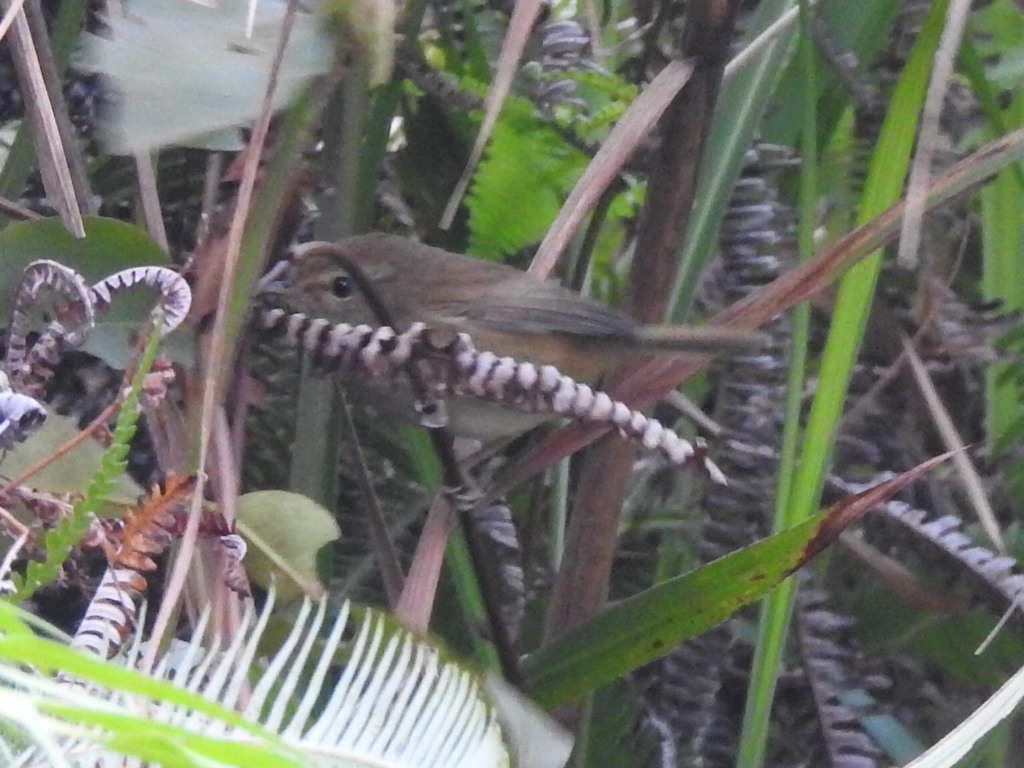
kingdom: Animalia
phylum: Chordata
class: Aves
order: Passeriformes
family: Cettiidae
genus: Horornis
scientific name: Horornis fortipes
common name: Brown-flanked bush warbler
